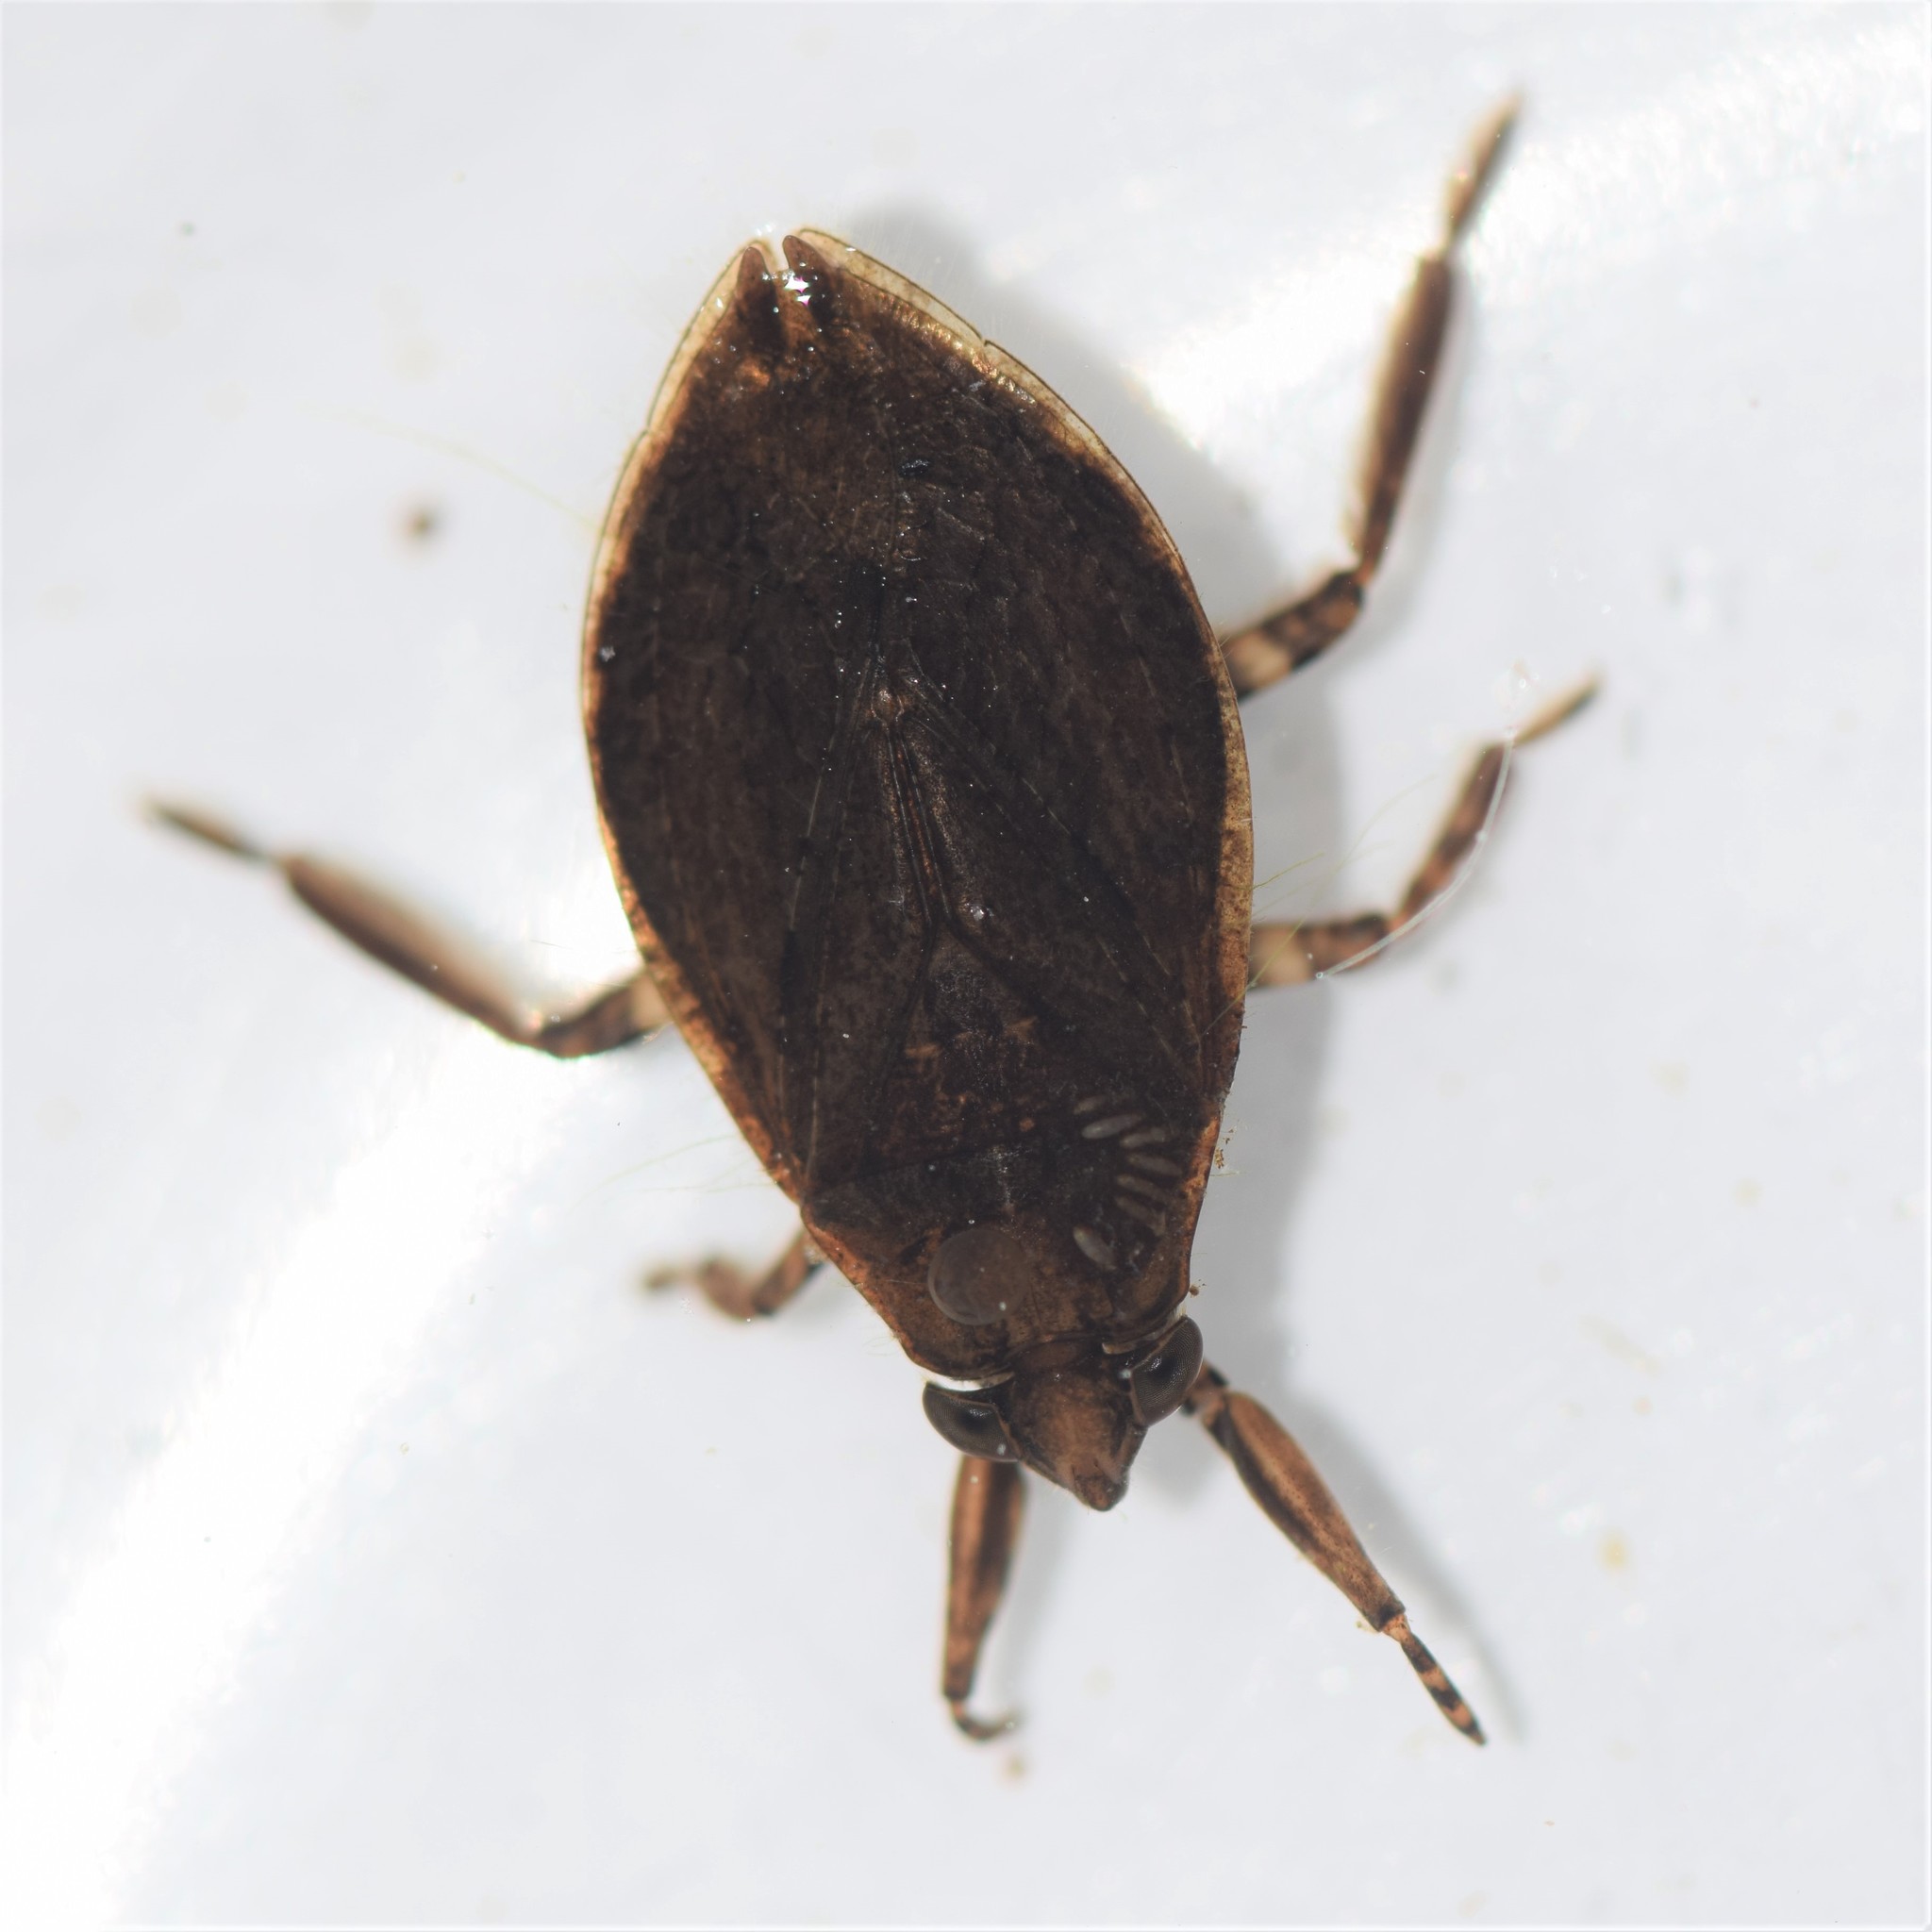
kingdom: Animalia
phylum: Arthropoda
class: Insecta
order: Hemiptera
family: Belostomatidae
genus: Belostoma
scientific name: Belostoma
